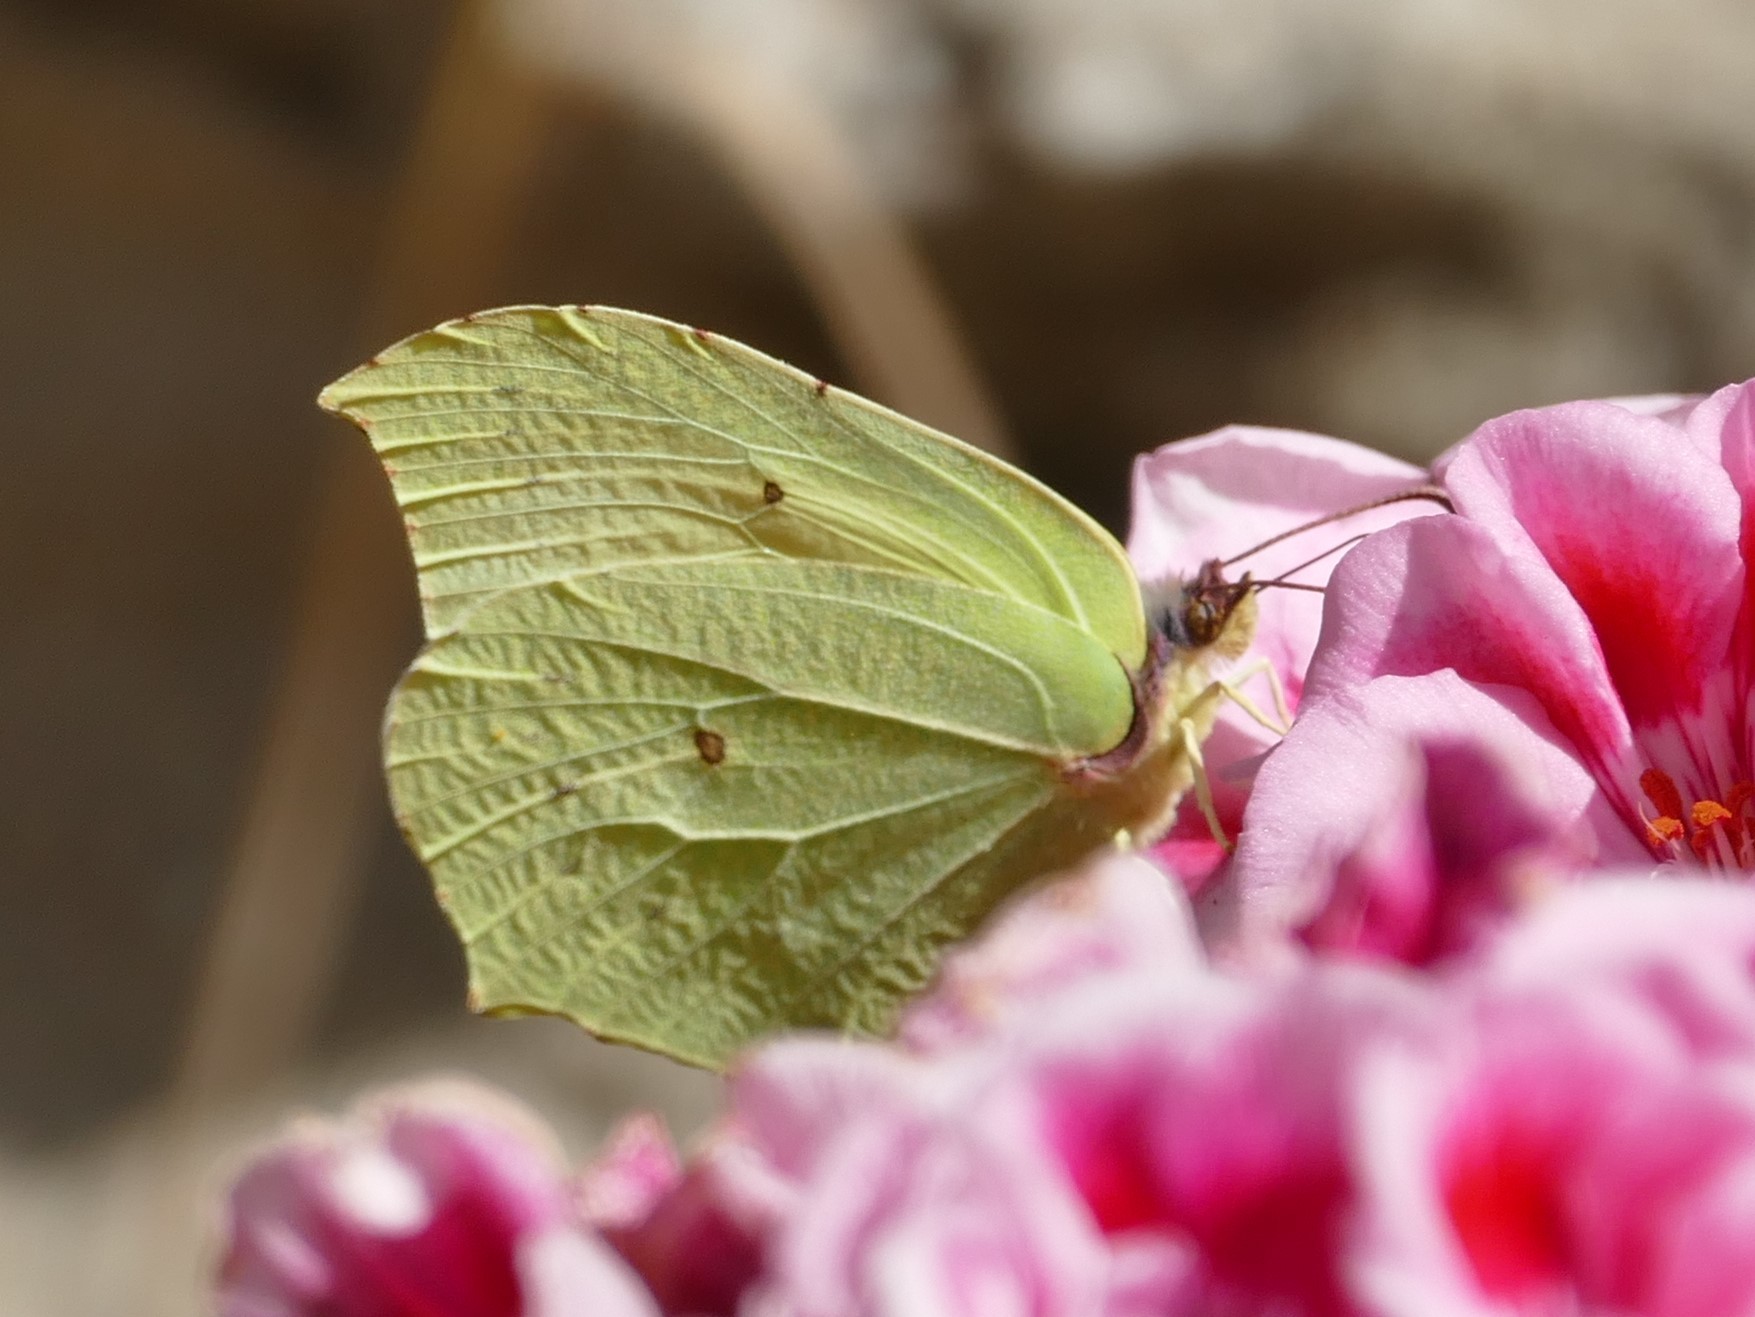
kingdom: Animalia
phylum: Arthropoda
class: Insecta
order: Lepidoptera
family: Pieridae
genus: Gonepteryx
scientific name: Gonepteryx rhamni
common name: Brimstone
